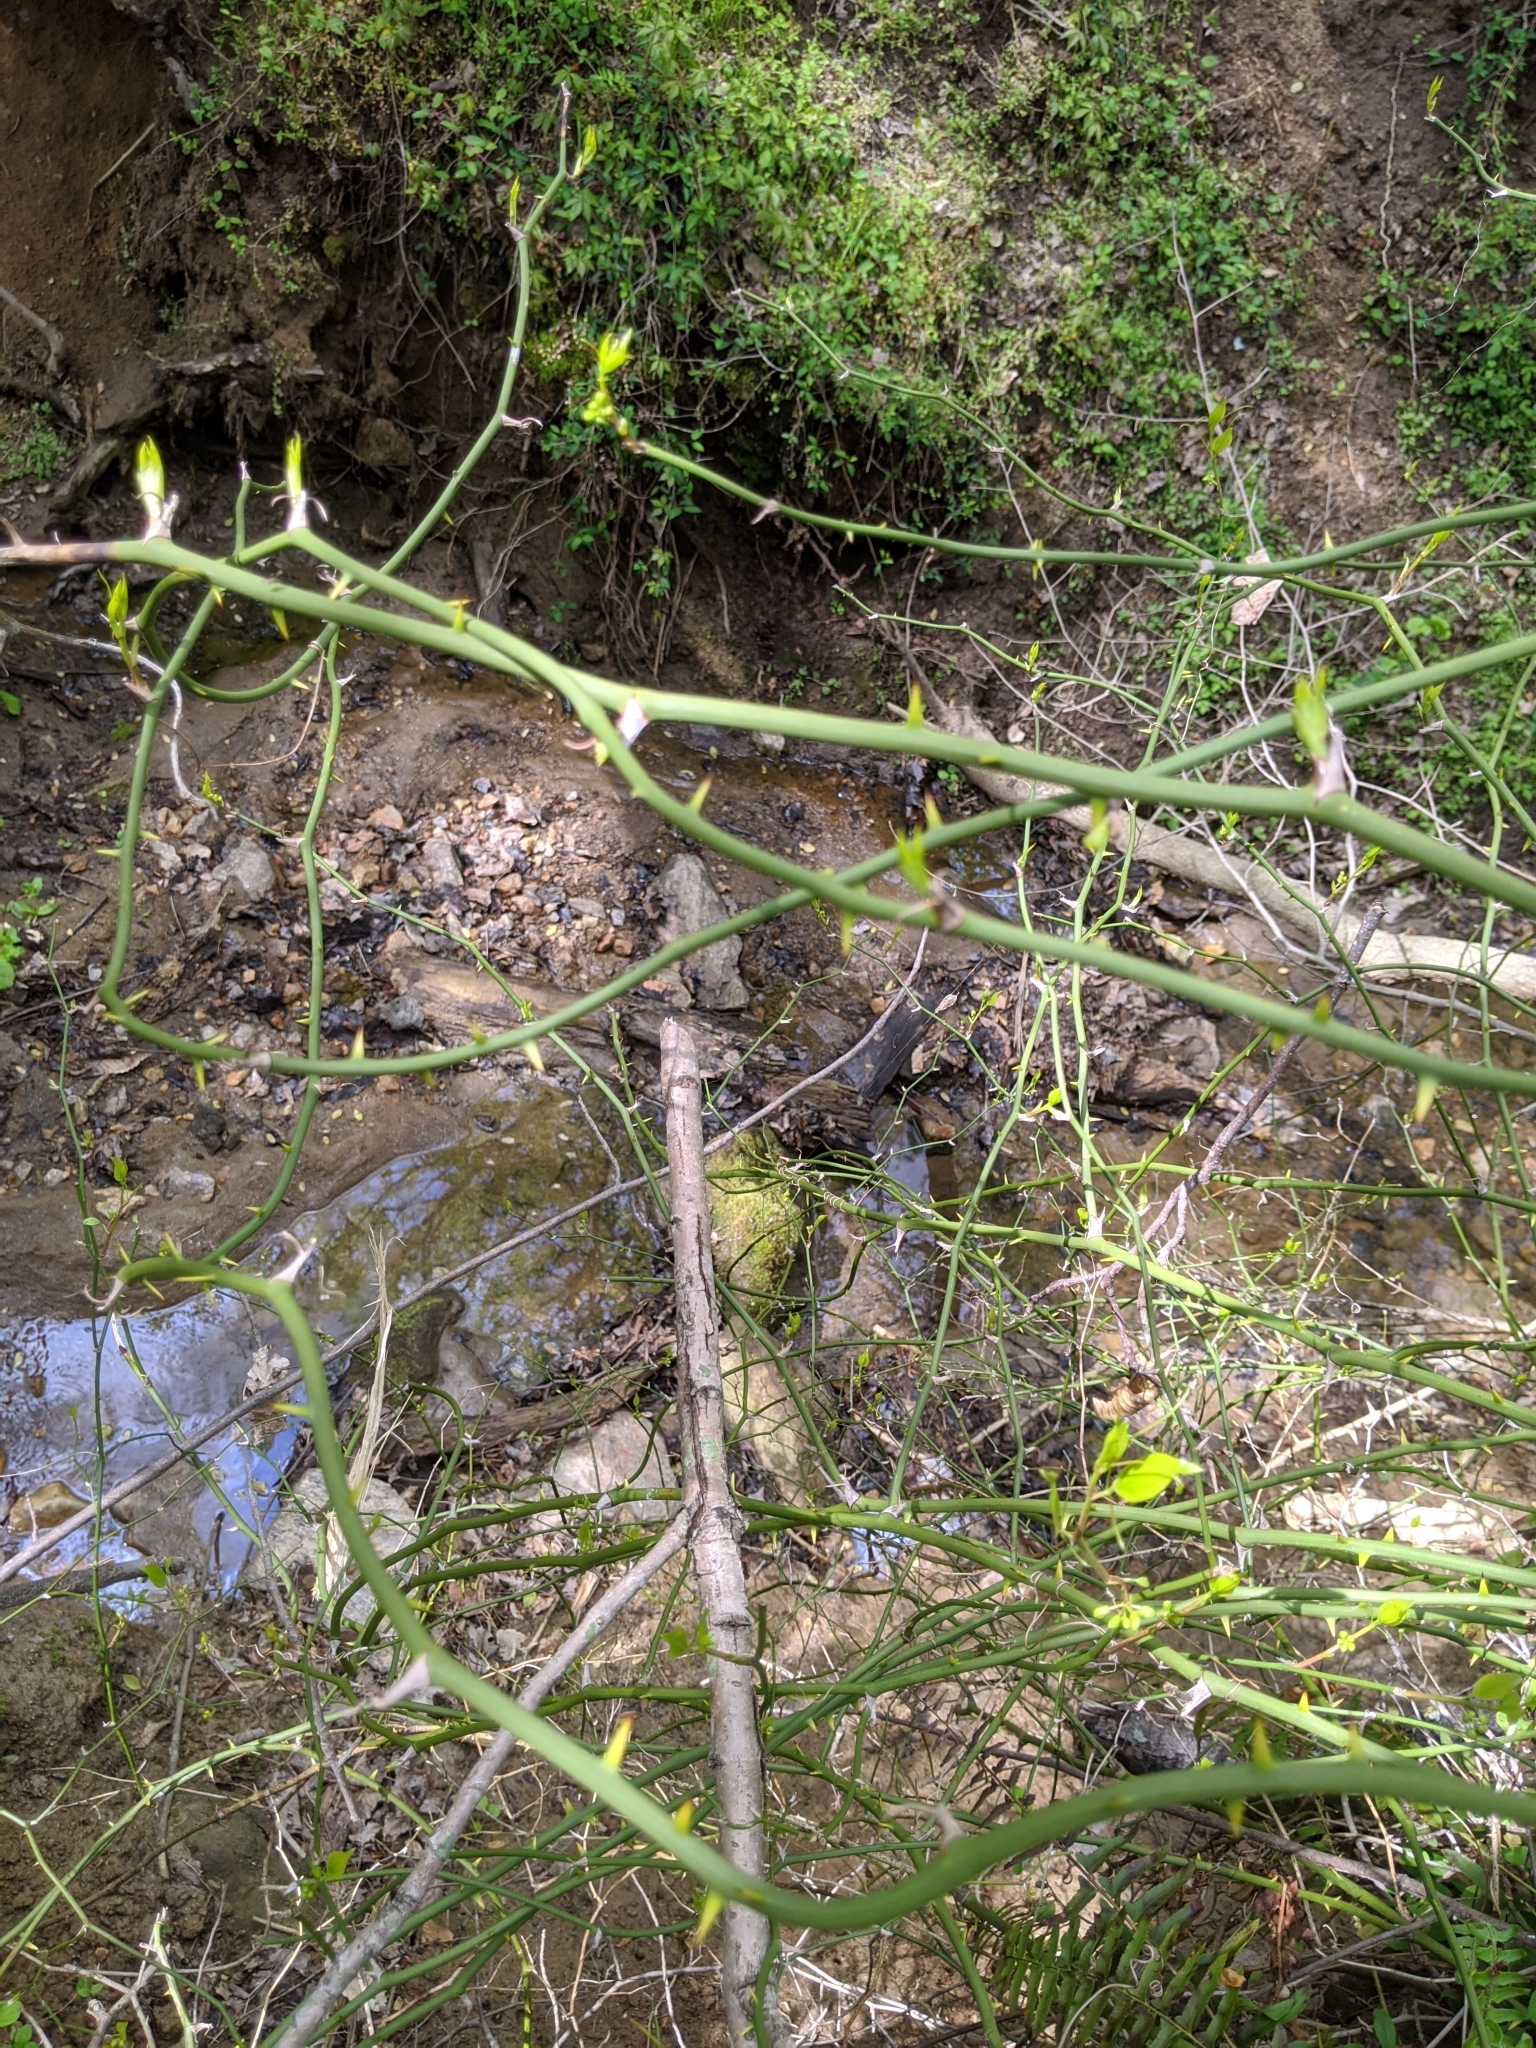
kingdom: Plantae
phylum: Tracheophyta
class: Liliopsida
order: Liliales
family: Smilacaceae
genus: Smilax
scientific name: Smilax rotundifolia
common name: Bullbriar
